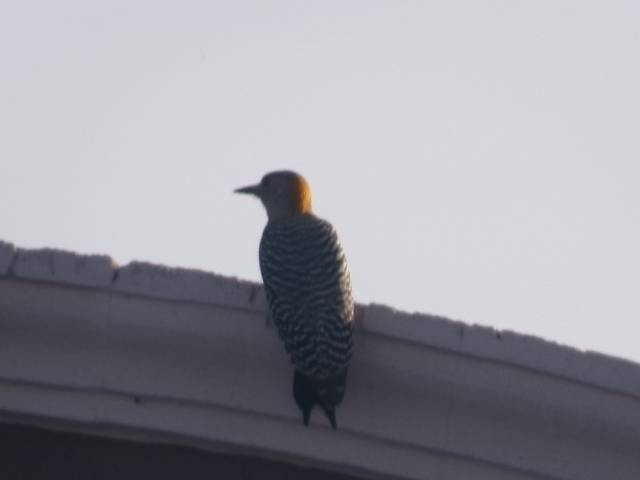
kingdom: Animalia
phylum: Chordata
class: Aves
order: Piciformes
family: Picidae
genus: Melanerpes
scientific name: Melanerpes aurifrons
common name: Golden-fronted woodpecker
